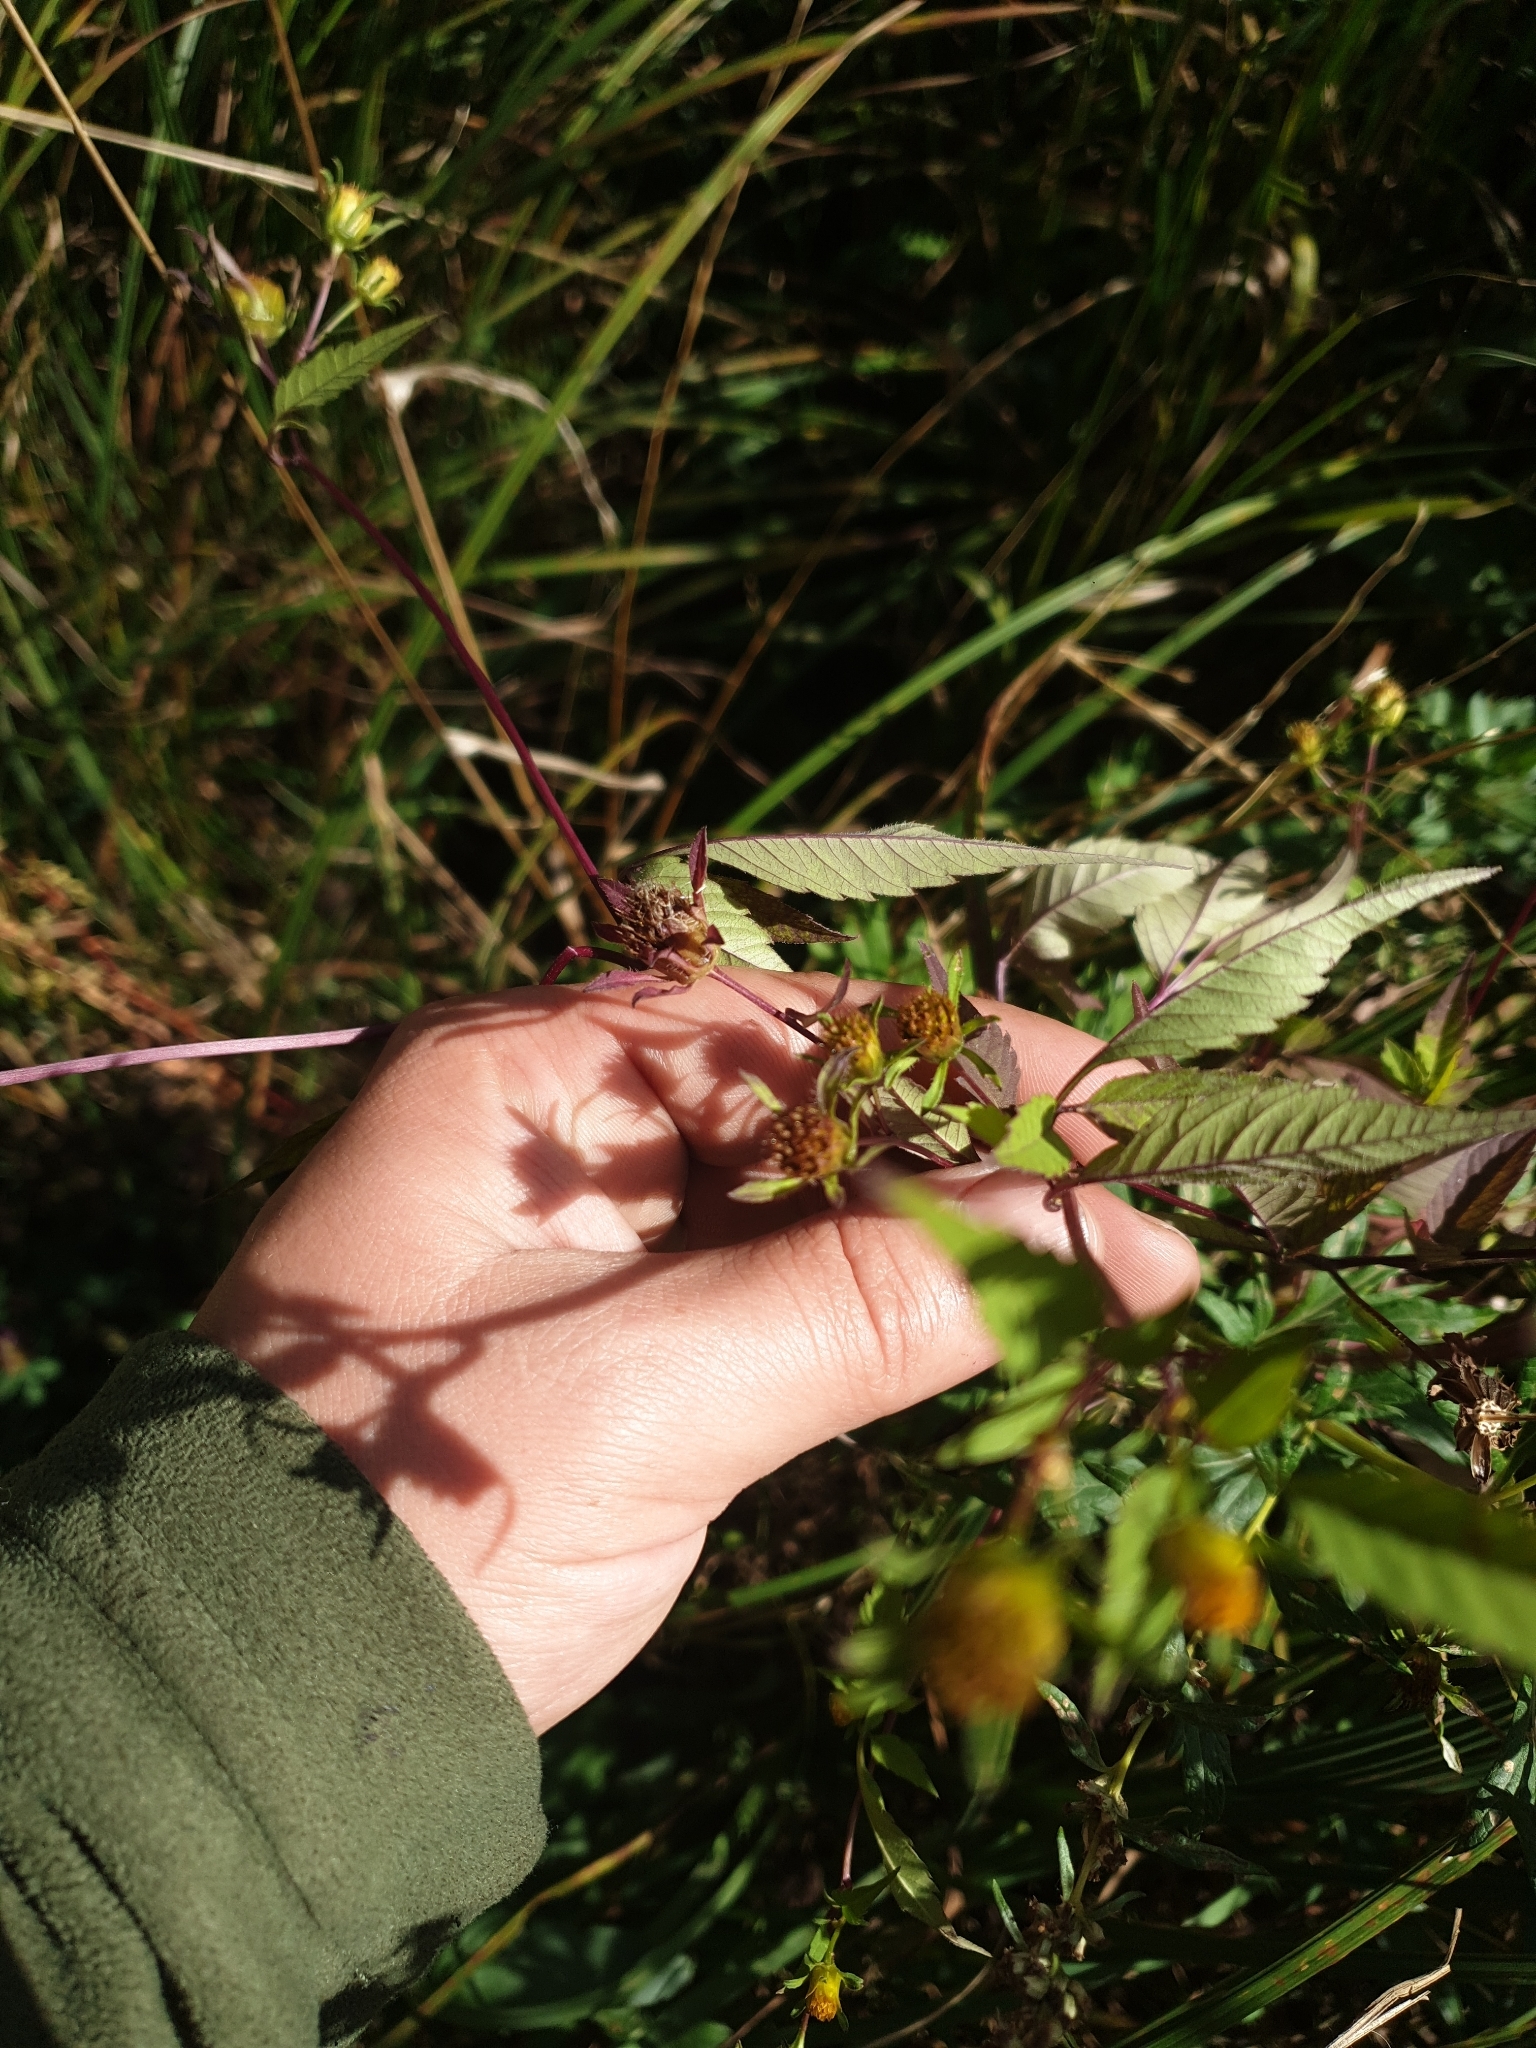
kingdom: Plantae
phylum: Tracheophyta
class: Magnoliopsida
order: Asterales
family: Asteraceae
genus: Bidens
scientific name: Bidens frondosa
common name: Beggarticks
